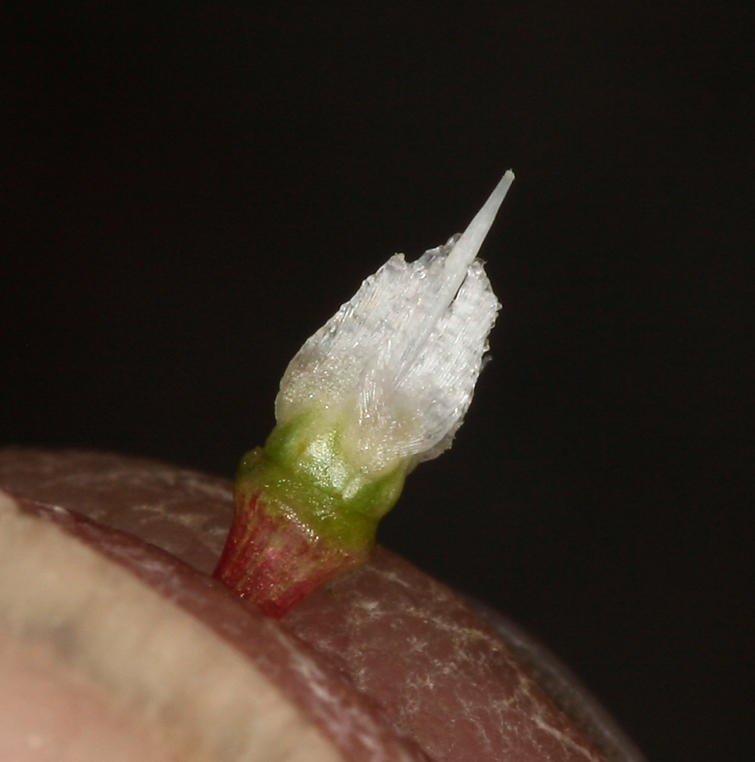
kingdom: Plantae
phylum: Tracheophyta
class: Liliopsida
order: Asparagales
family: Amaryllidaceae
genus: Allium
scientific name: Allium atrorubens
